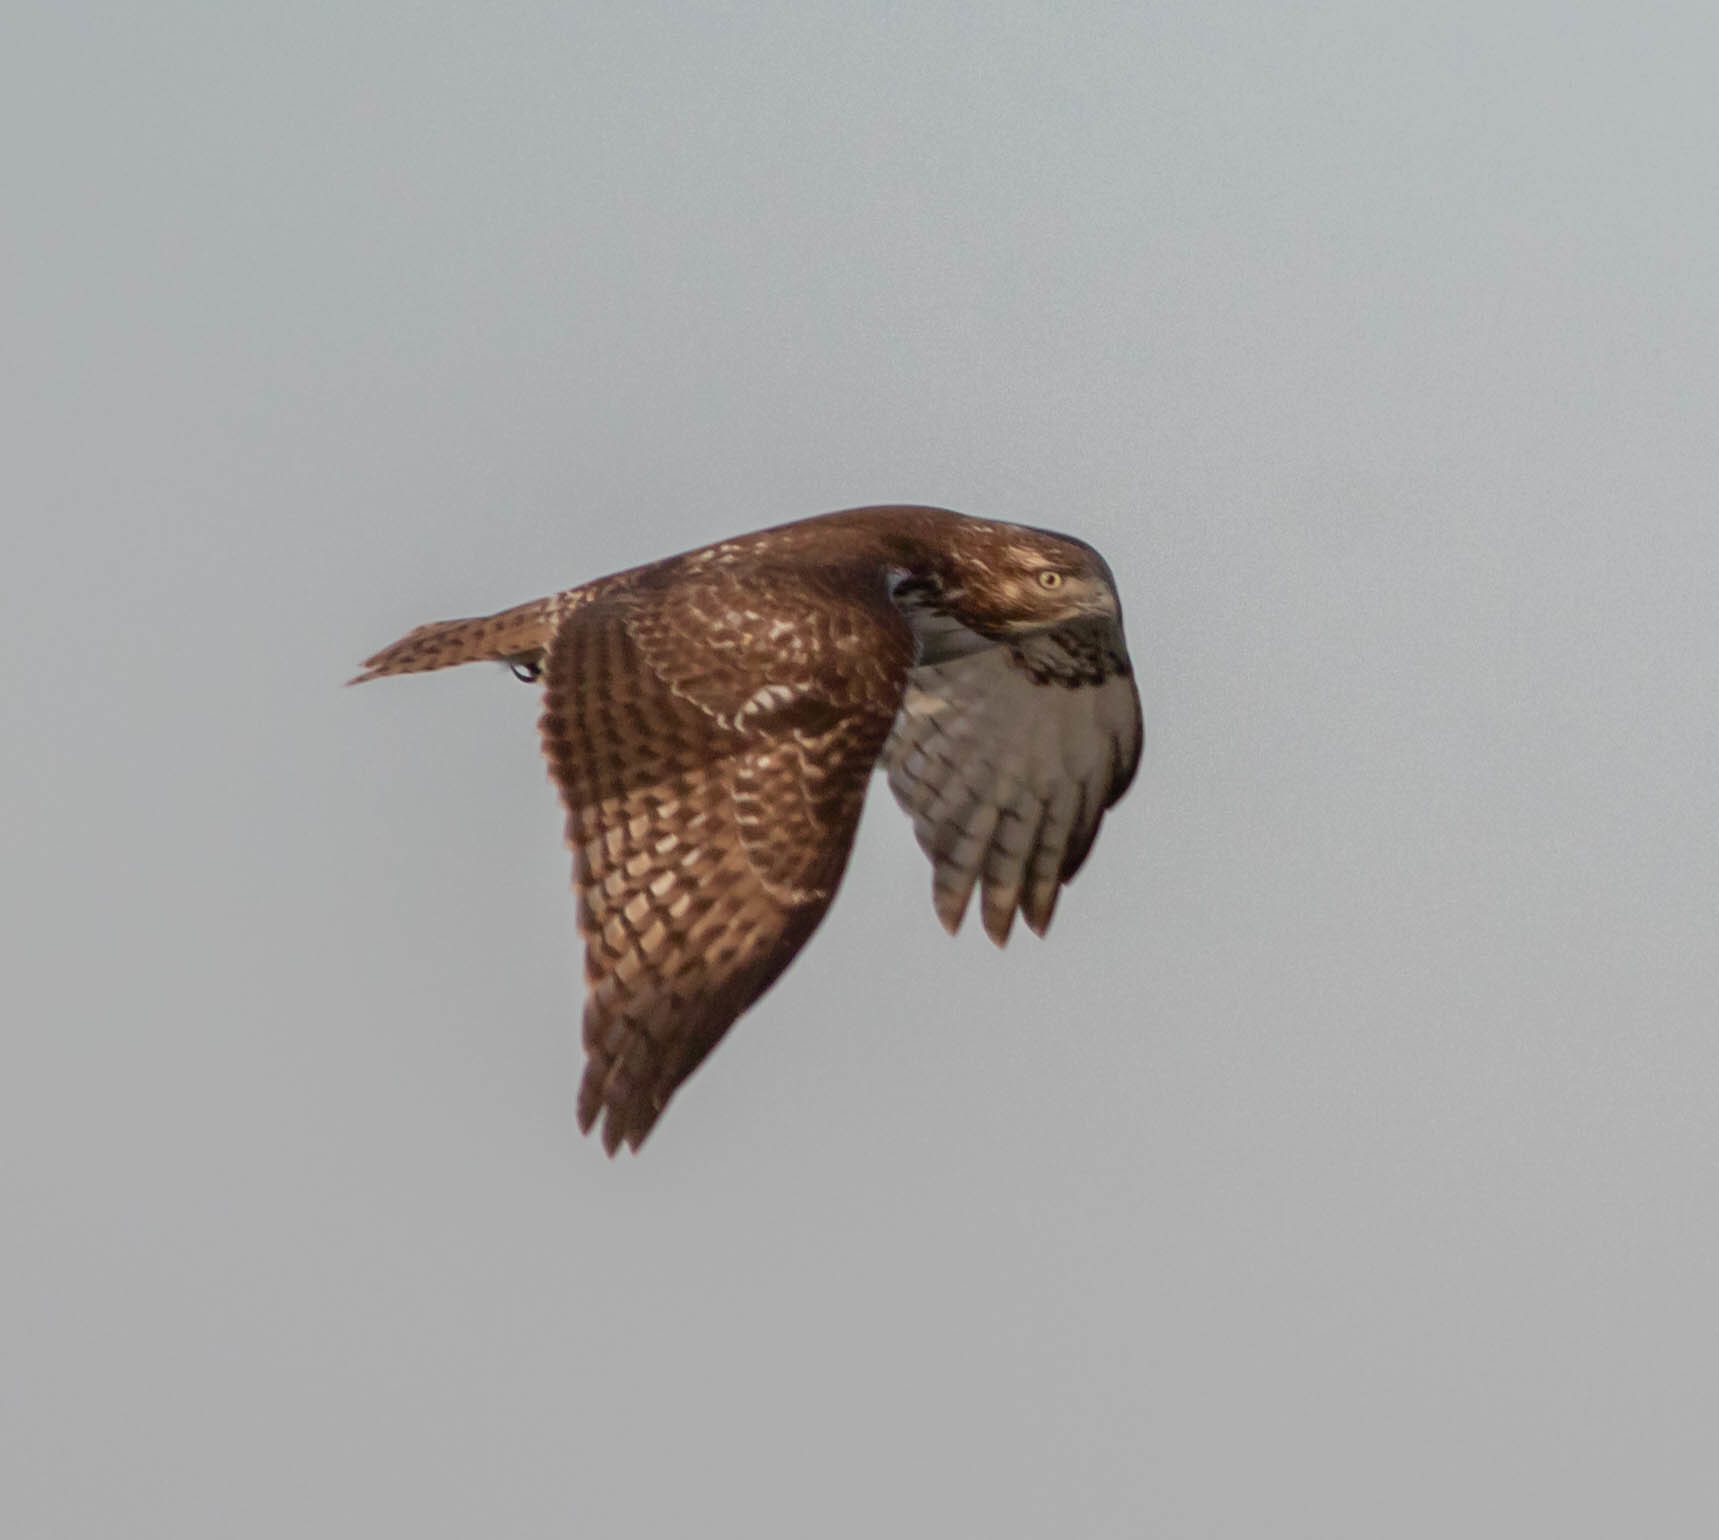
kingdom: Animalia
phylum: Chordata
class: Aves
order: Accipitriformes
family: Accipitridae
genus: Buteo
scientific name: Buteo jamaicensis
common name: Red-tailed hawk
